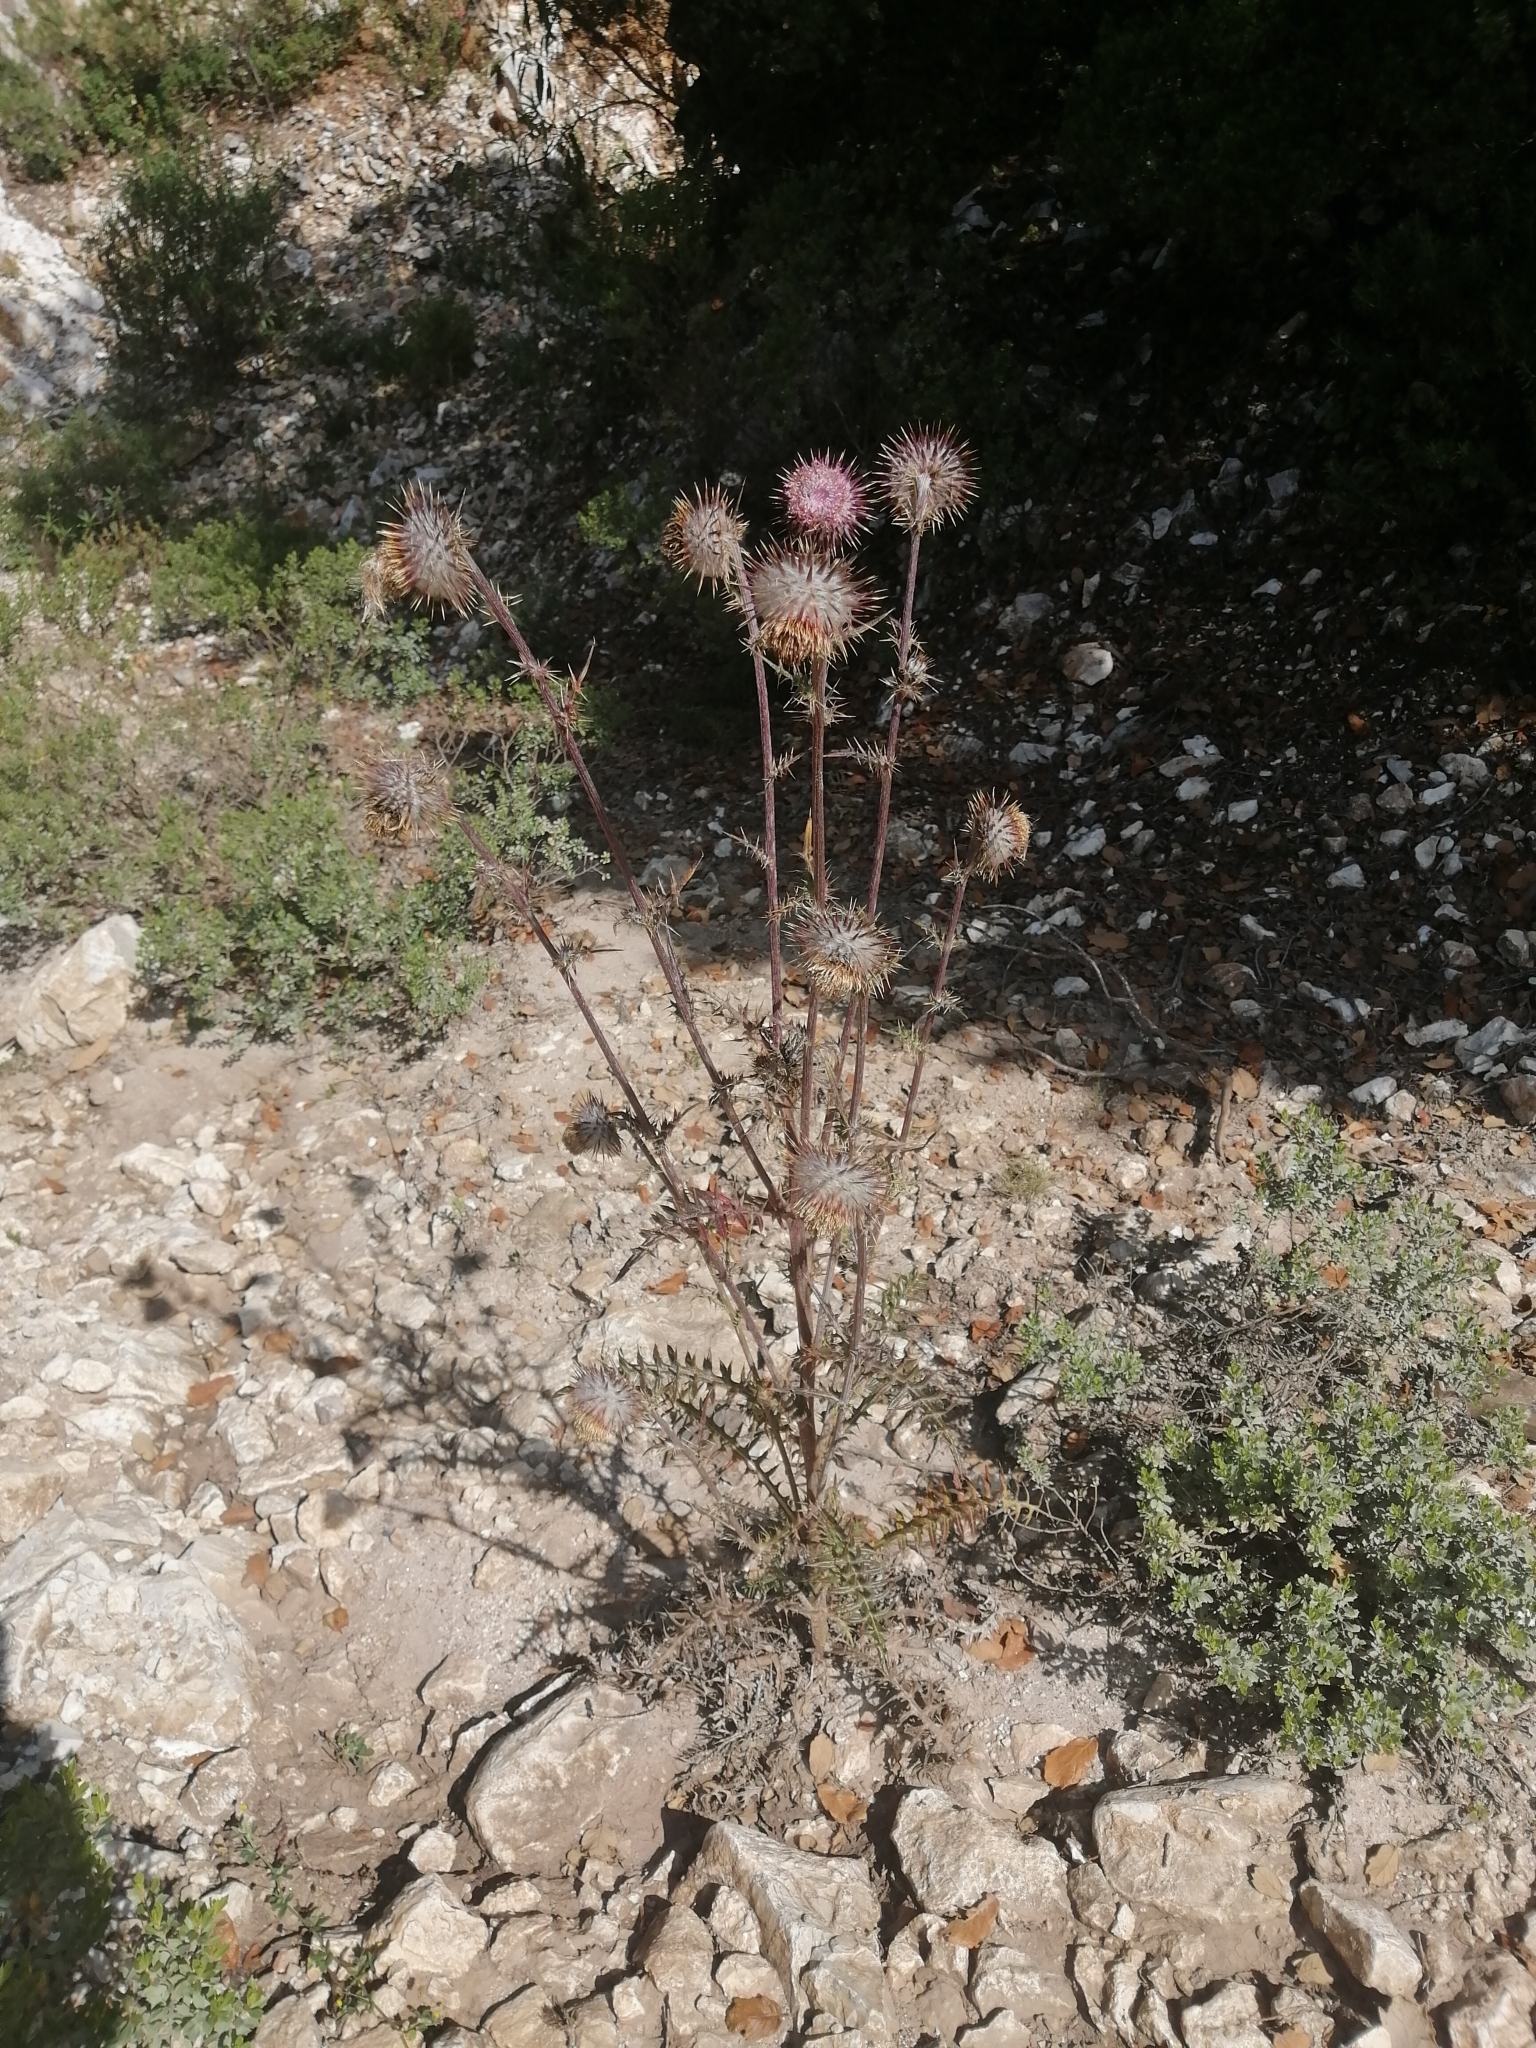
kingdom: Plantae
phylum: Tracheophyta
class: Magnoliopsida
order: Asterales
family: Asteraceae
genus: Cirsium
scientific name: Cirsium pinetorum
